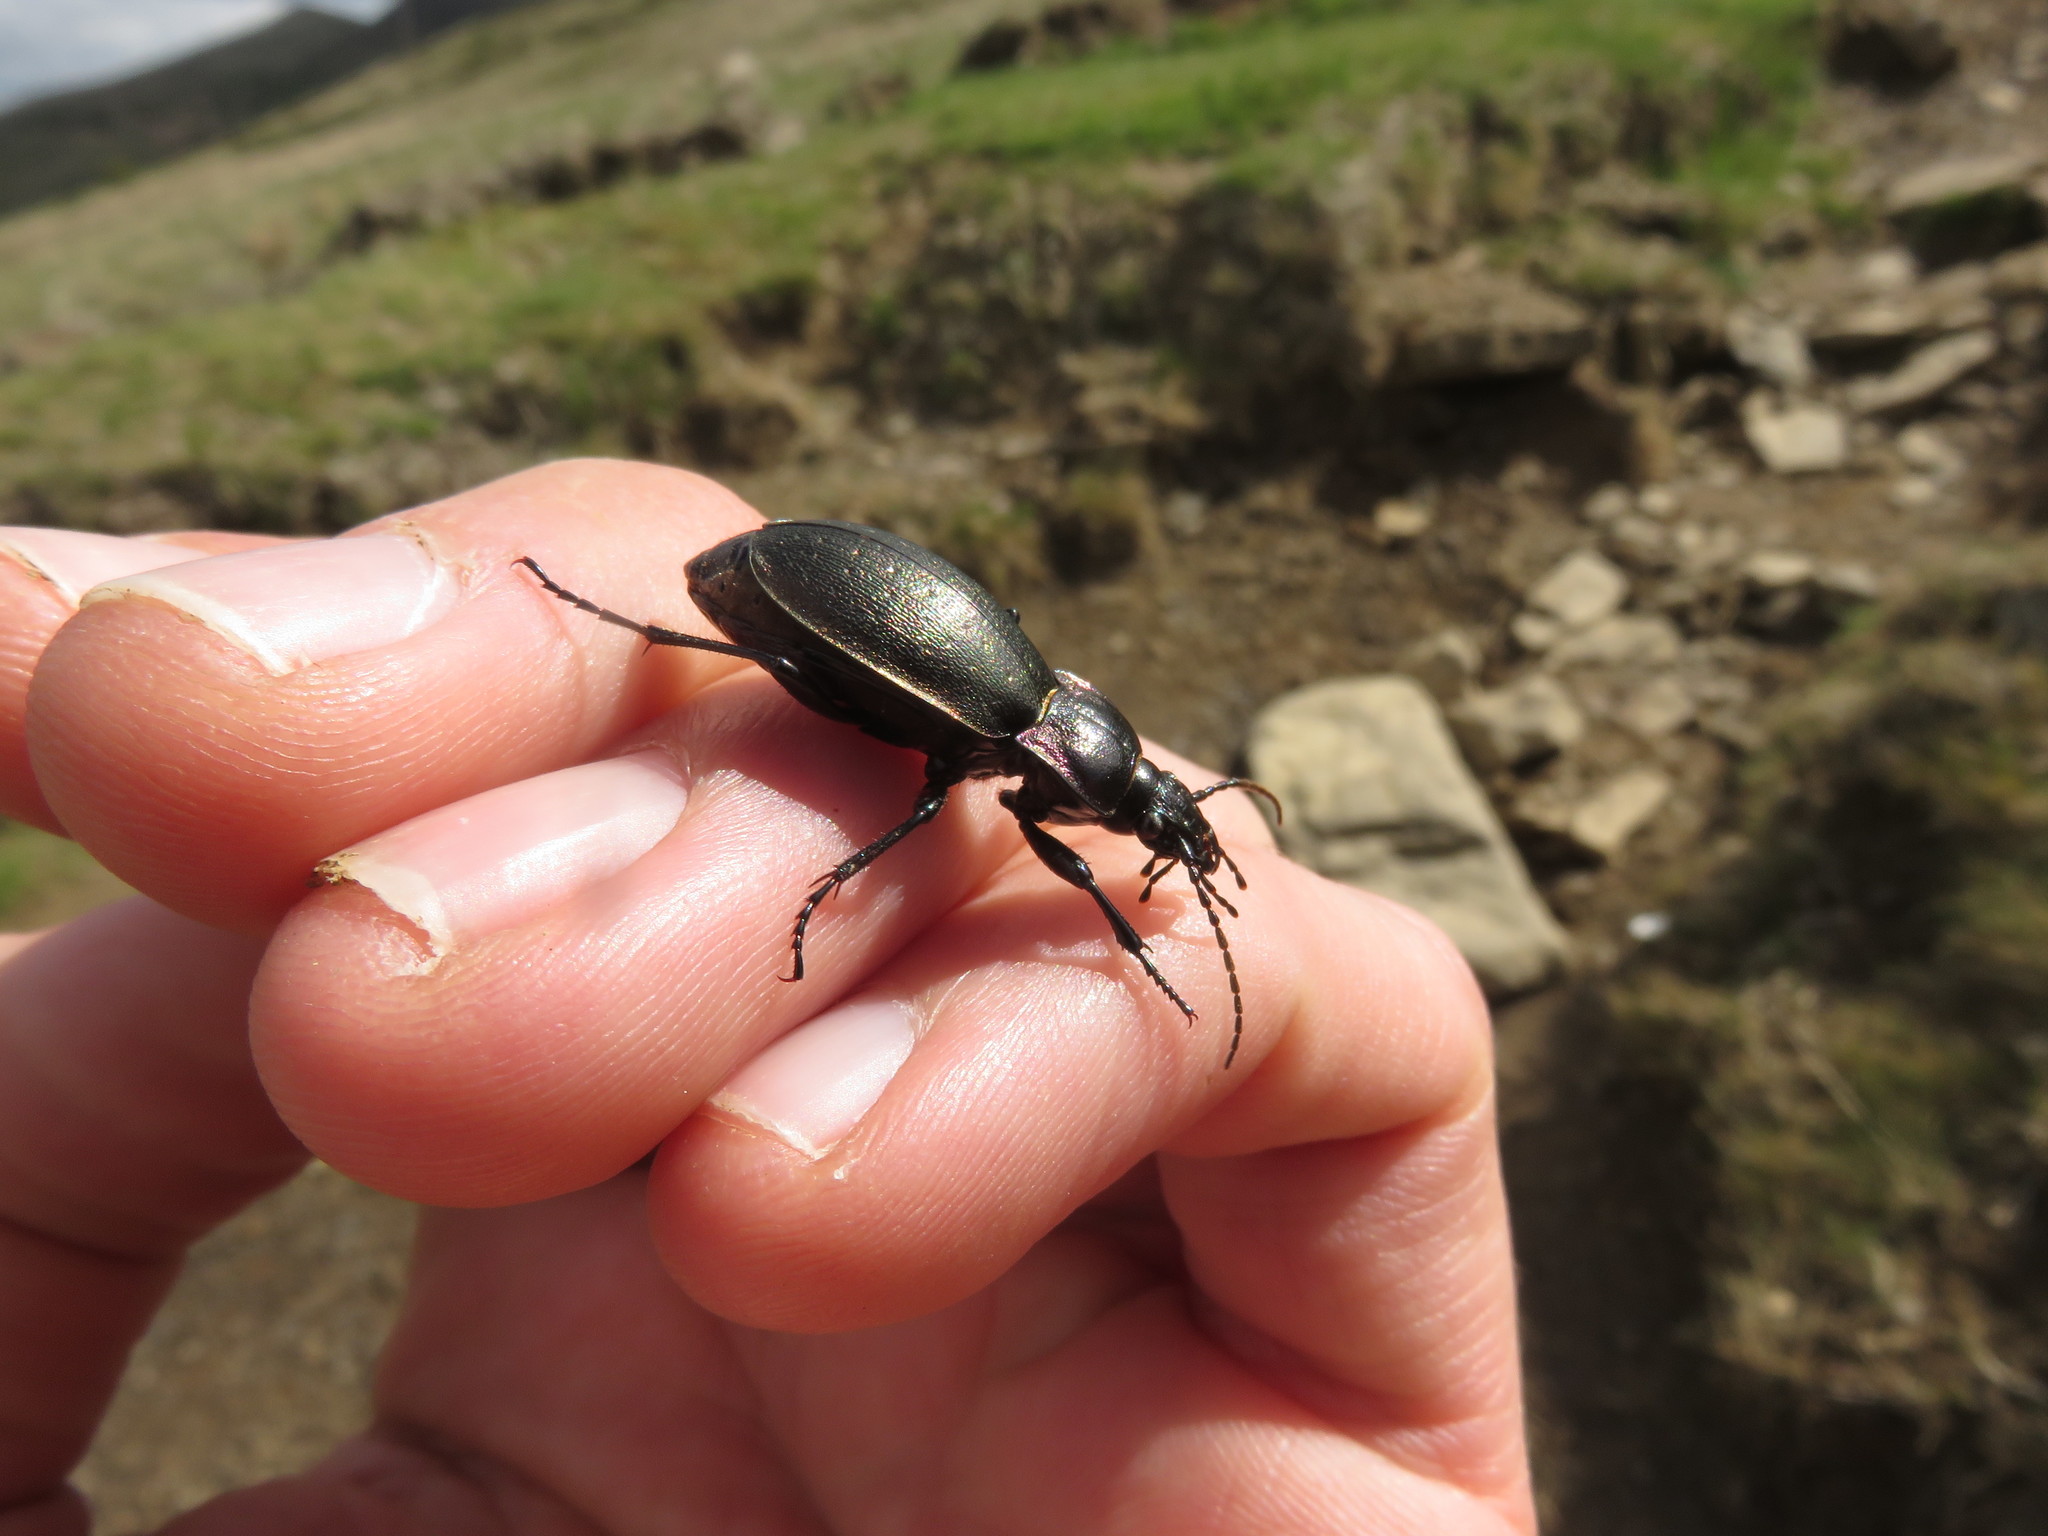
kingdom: Animalia
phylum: Arthropoda
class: Insecta
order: Coleoptera
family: Carabidae
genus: Carabus
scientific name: Carabus nemoralis
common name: European ground beetle
